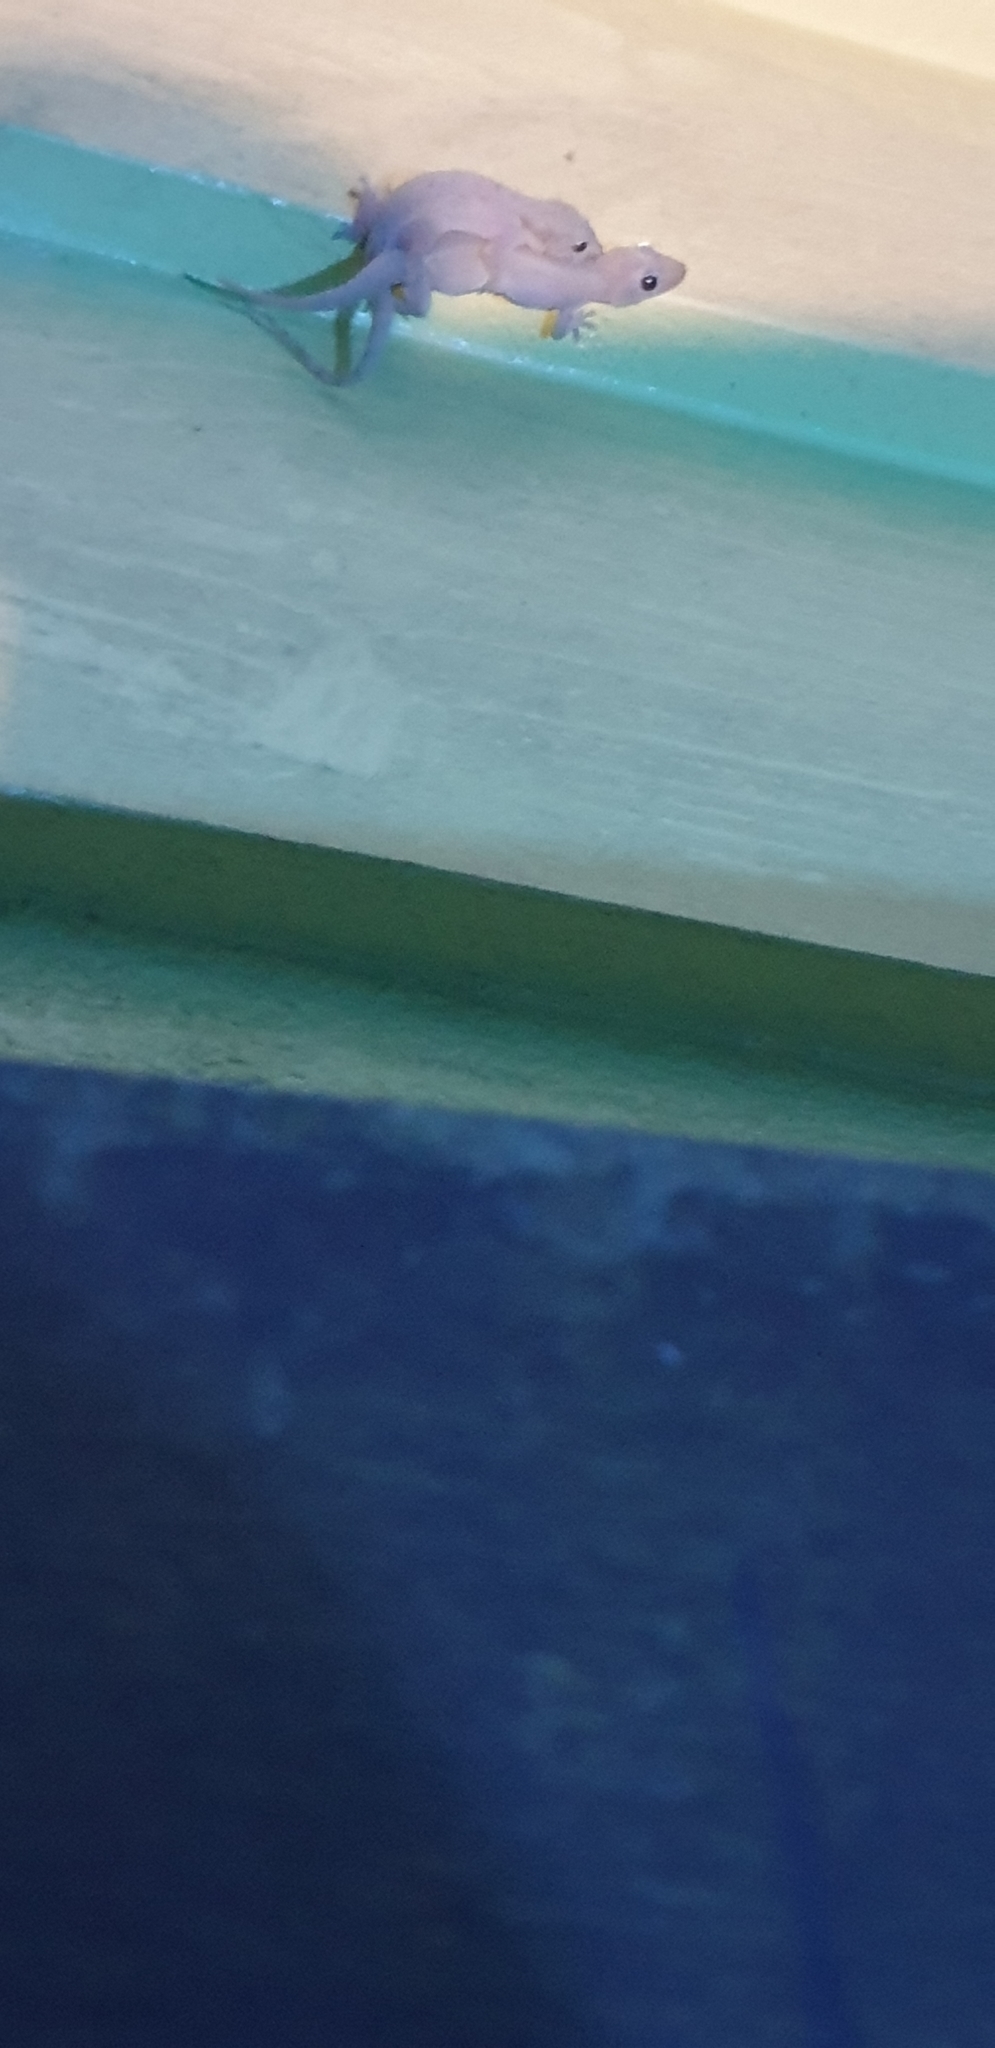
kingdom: Animalia
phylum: Chordata
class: Squamata
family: Gekkonidae
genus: Hemidactylus
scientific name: Hemidactylus frenatus
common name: Common house gecko
